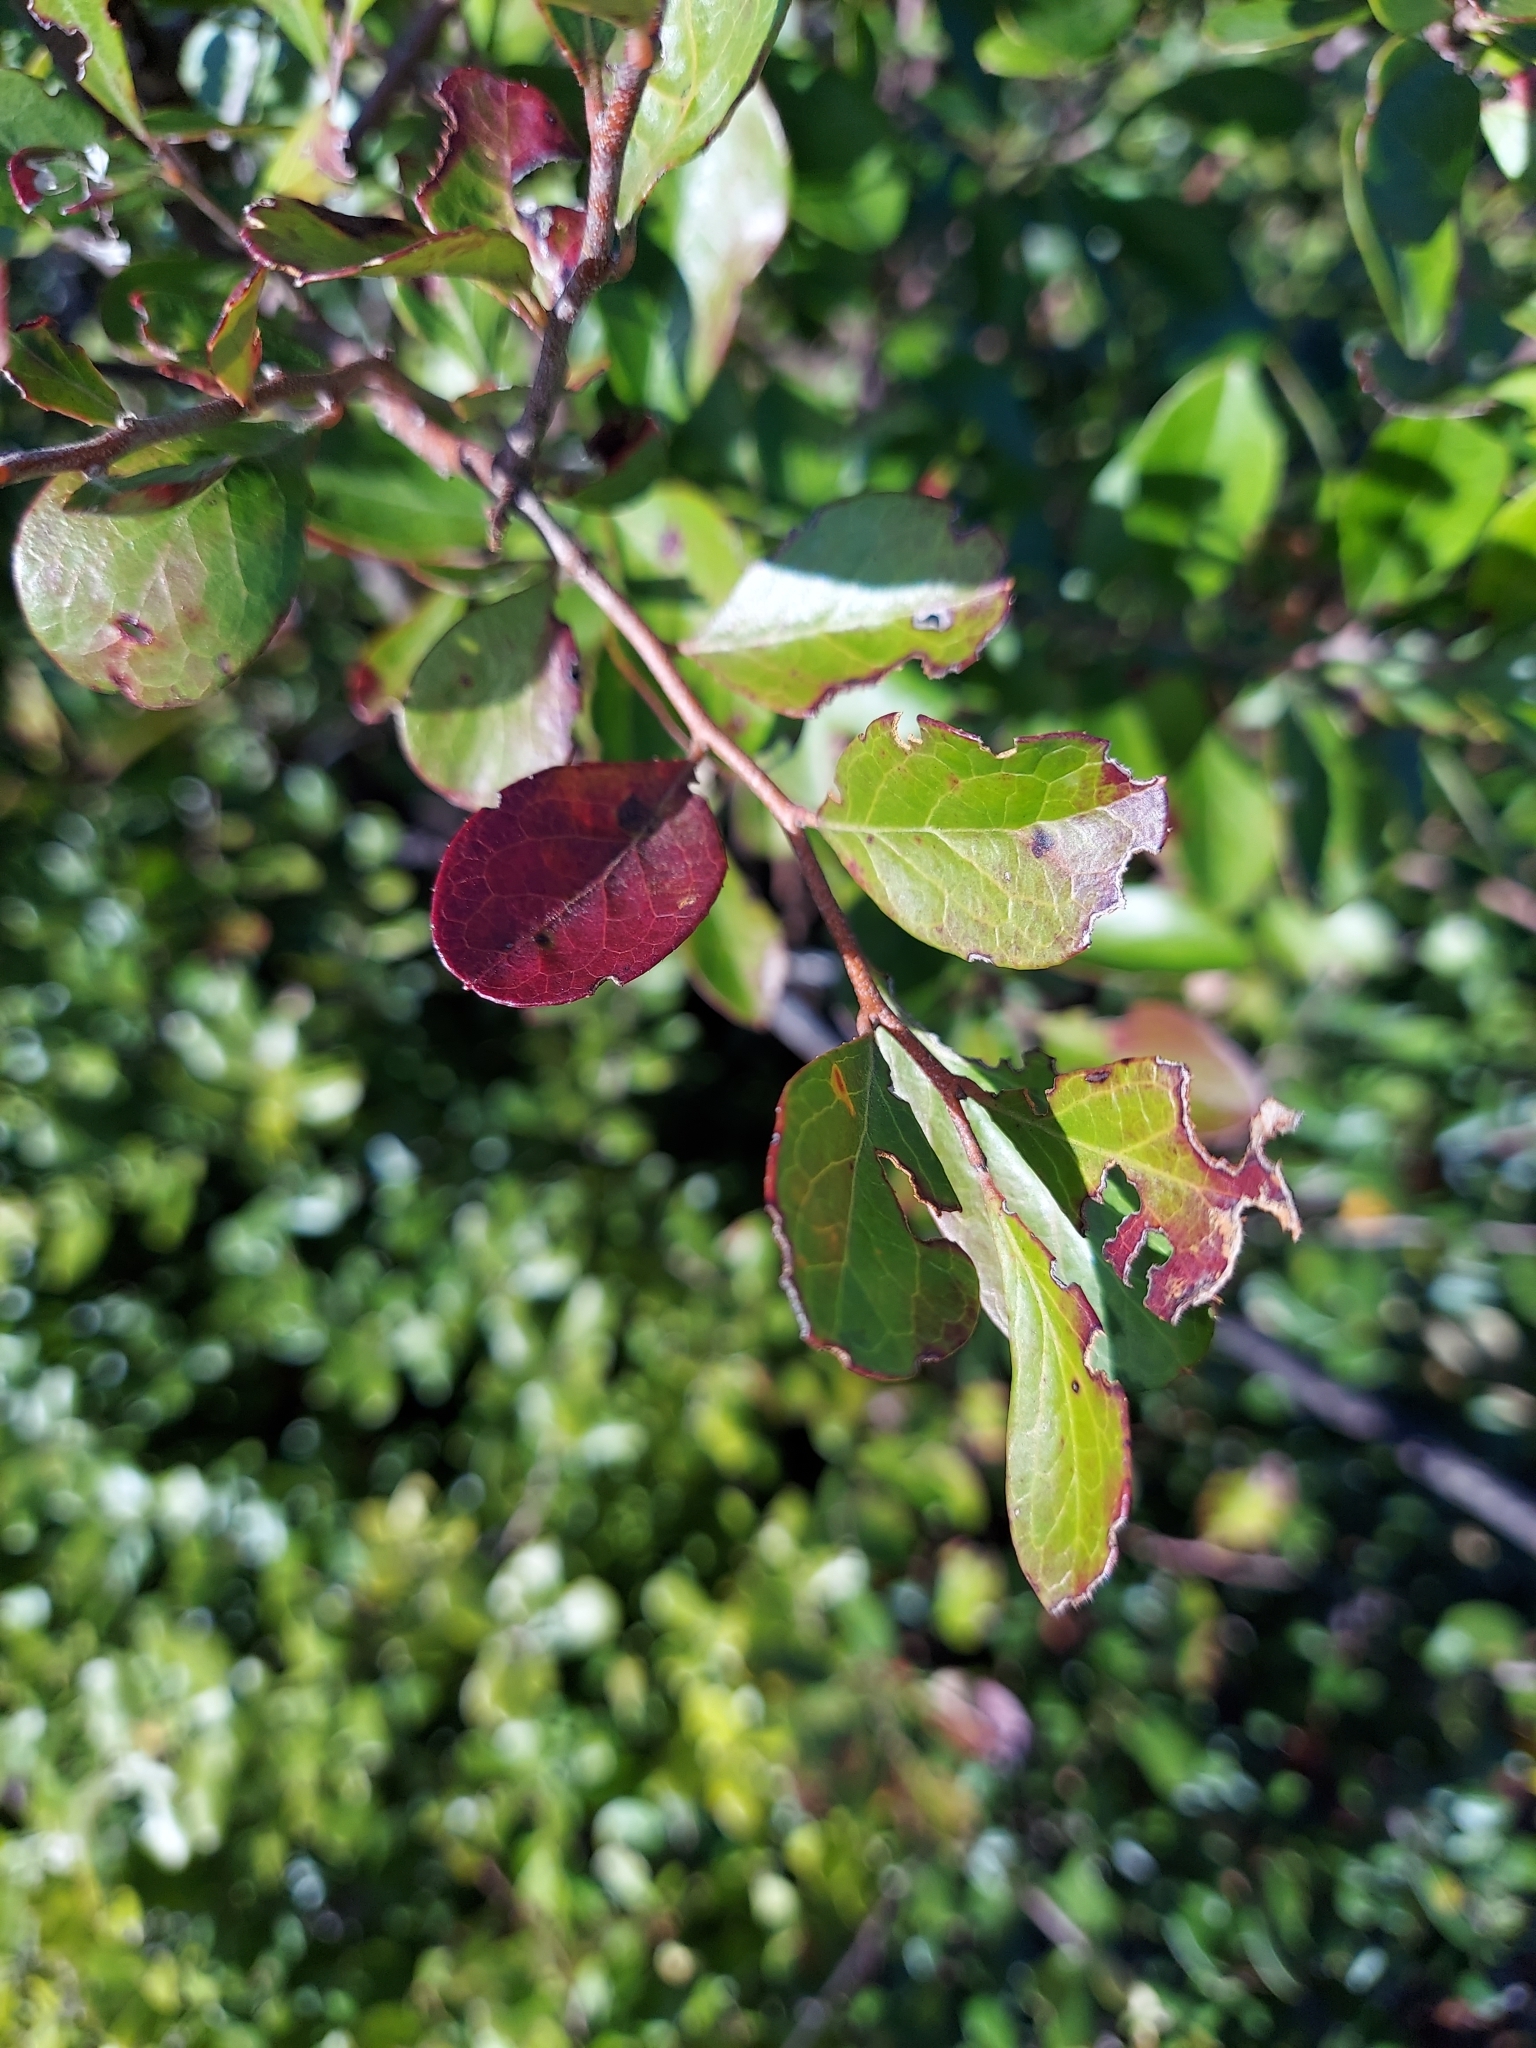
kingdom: Plantae
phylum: Tracheophyta
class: Magnoliopsida
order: Ericales
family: Ericaceae
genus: Vaccinium
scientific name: Vaccinium arboreum
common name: Farkleberry
